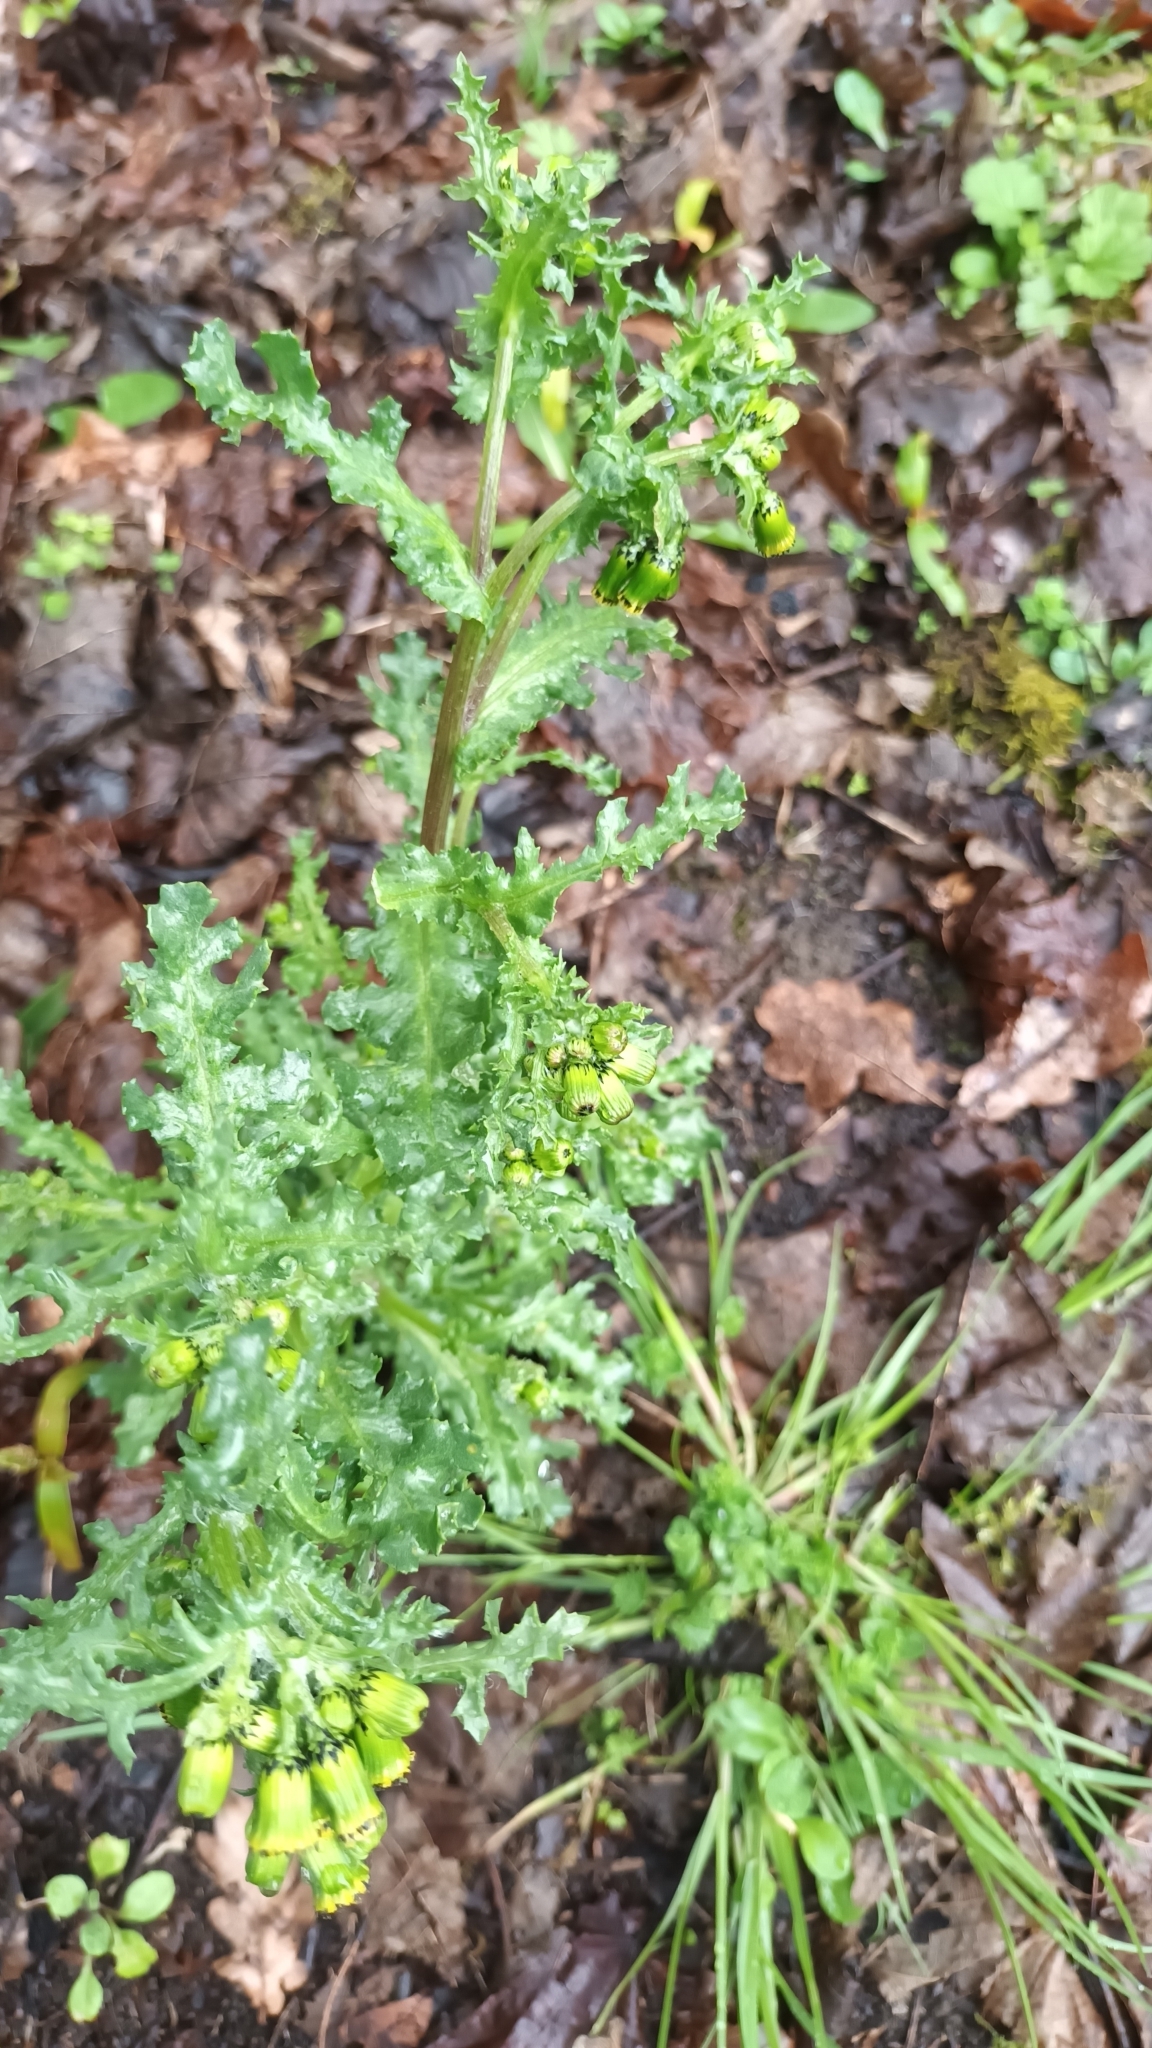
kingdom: Plantae
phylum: Tracheophyta
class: Magnoliopsida
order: Asterales
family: Asteraceae
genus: Senecio
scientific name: Senecio vulgaris
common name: Old-man-in-the-spring
